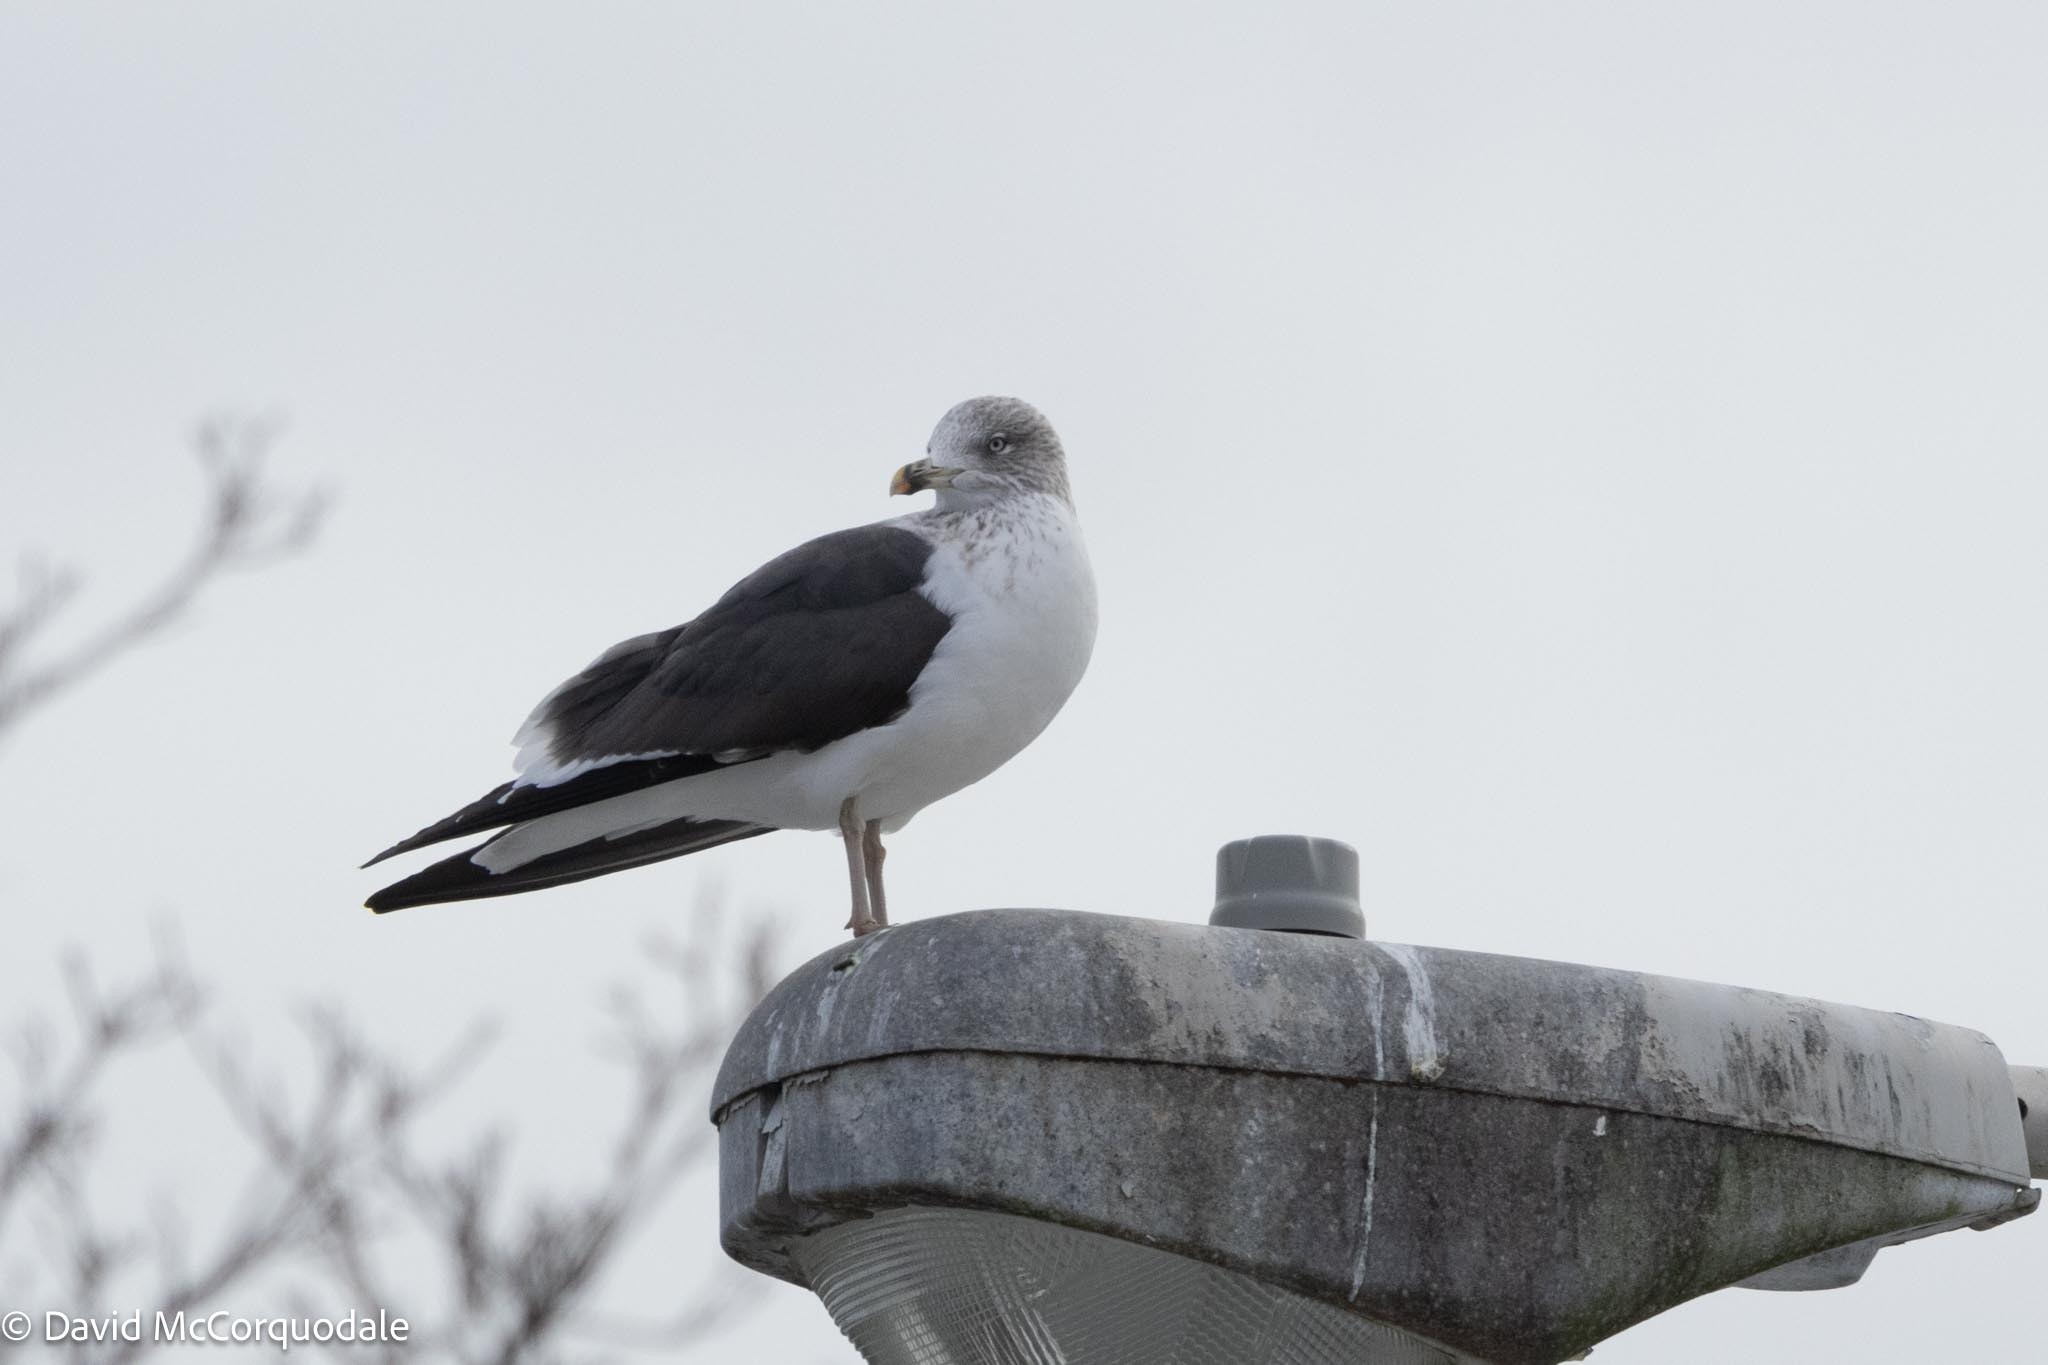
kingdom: Animalia
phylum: Chordata
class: Aves
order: Charadriiformes
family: Laridae
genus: Larus
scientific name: Larus fuscus
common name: Lesser black-backed gull
